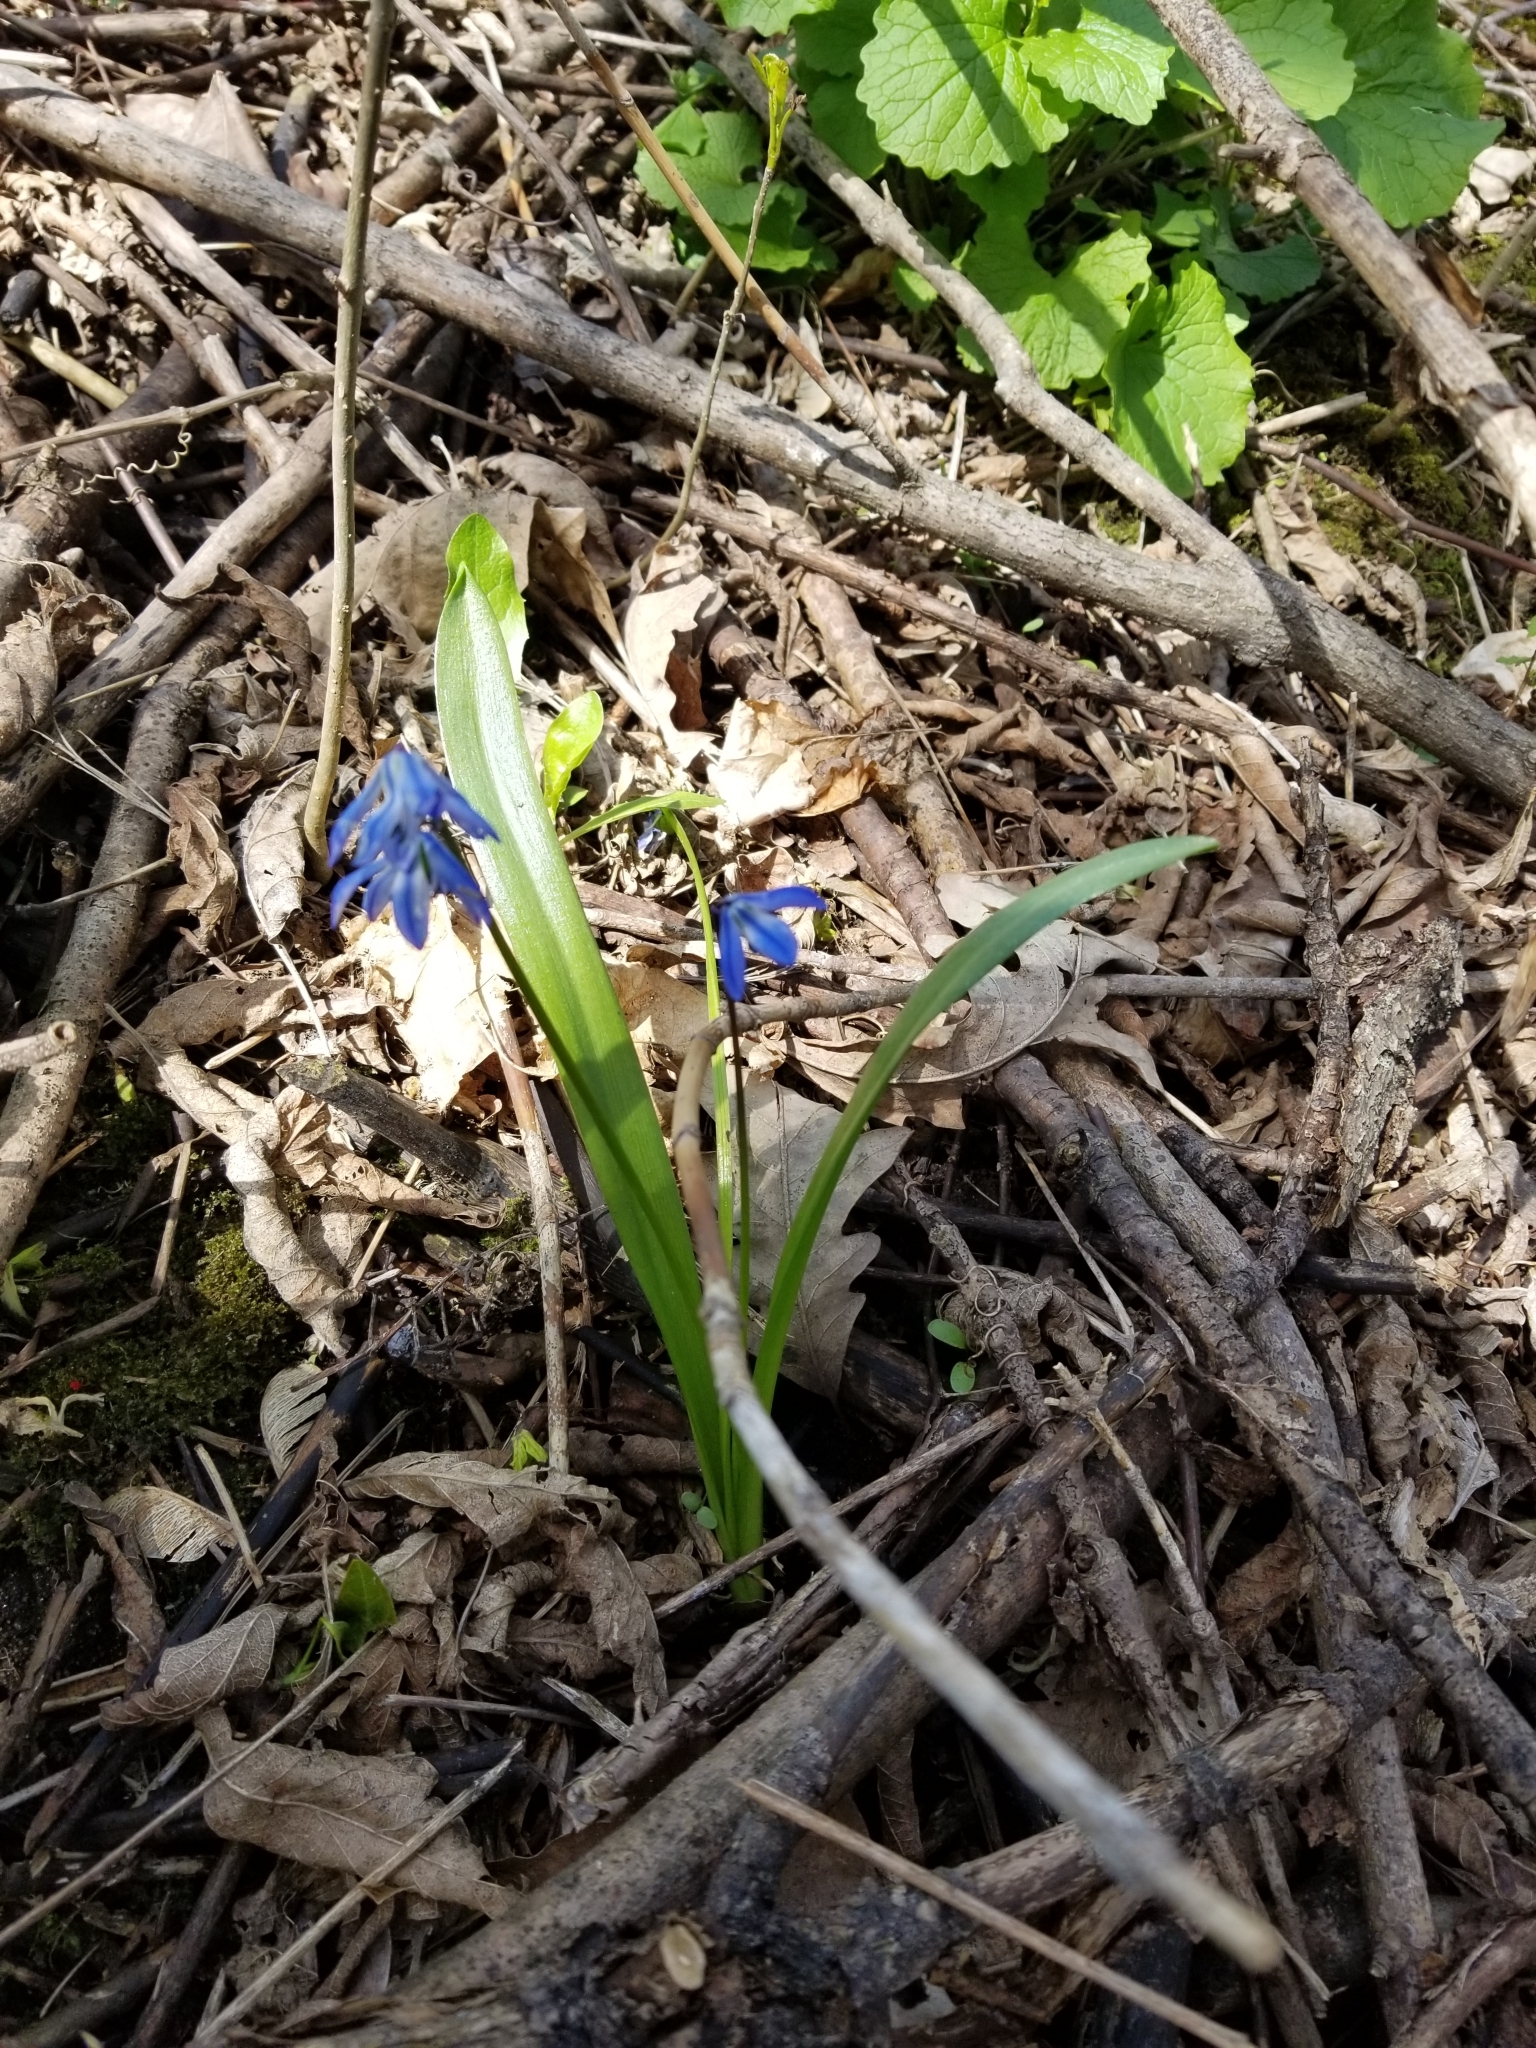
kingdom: Plantae
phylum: Tracheophyta
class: Liliopsida
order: Asparagales
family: Asparagaceae
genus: Scilla
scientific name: Scilla siberica
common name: Siberian squill
